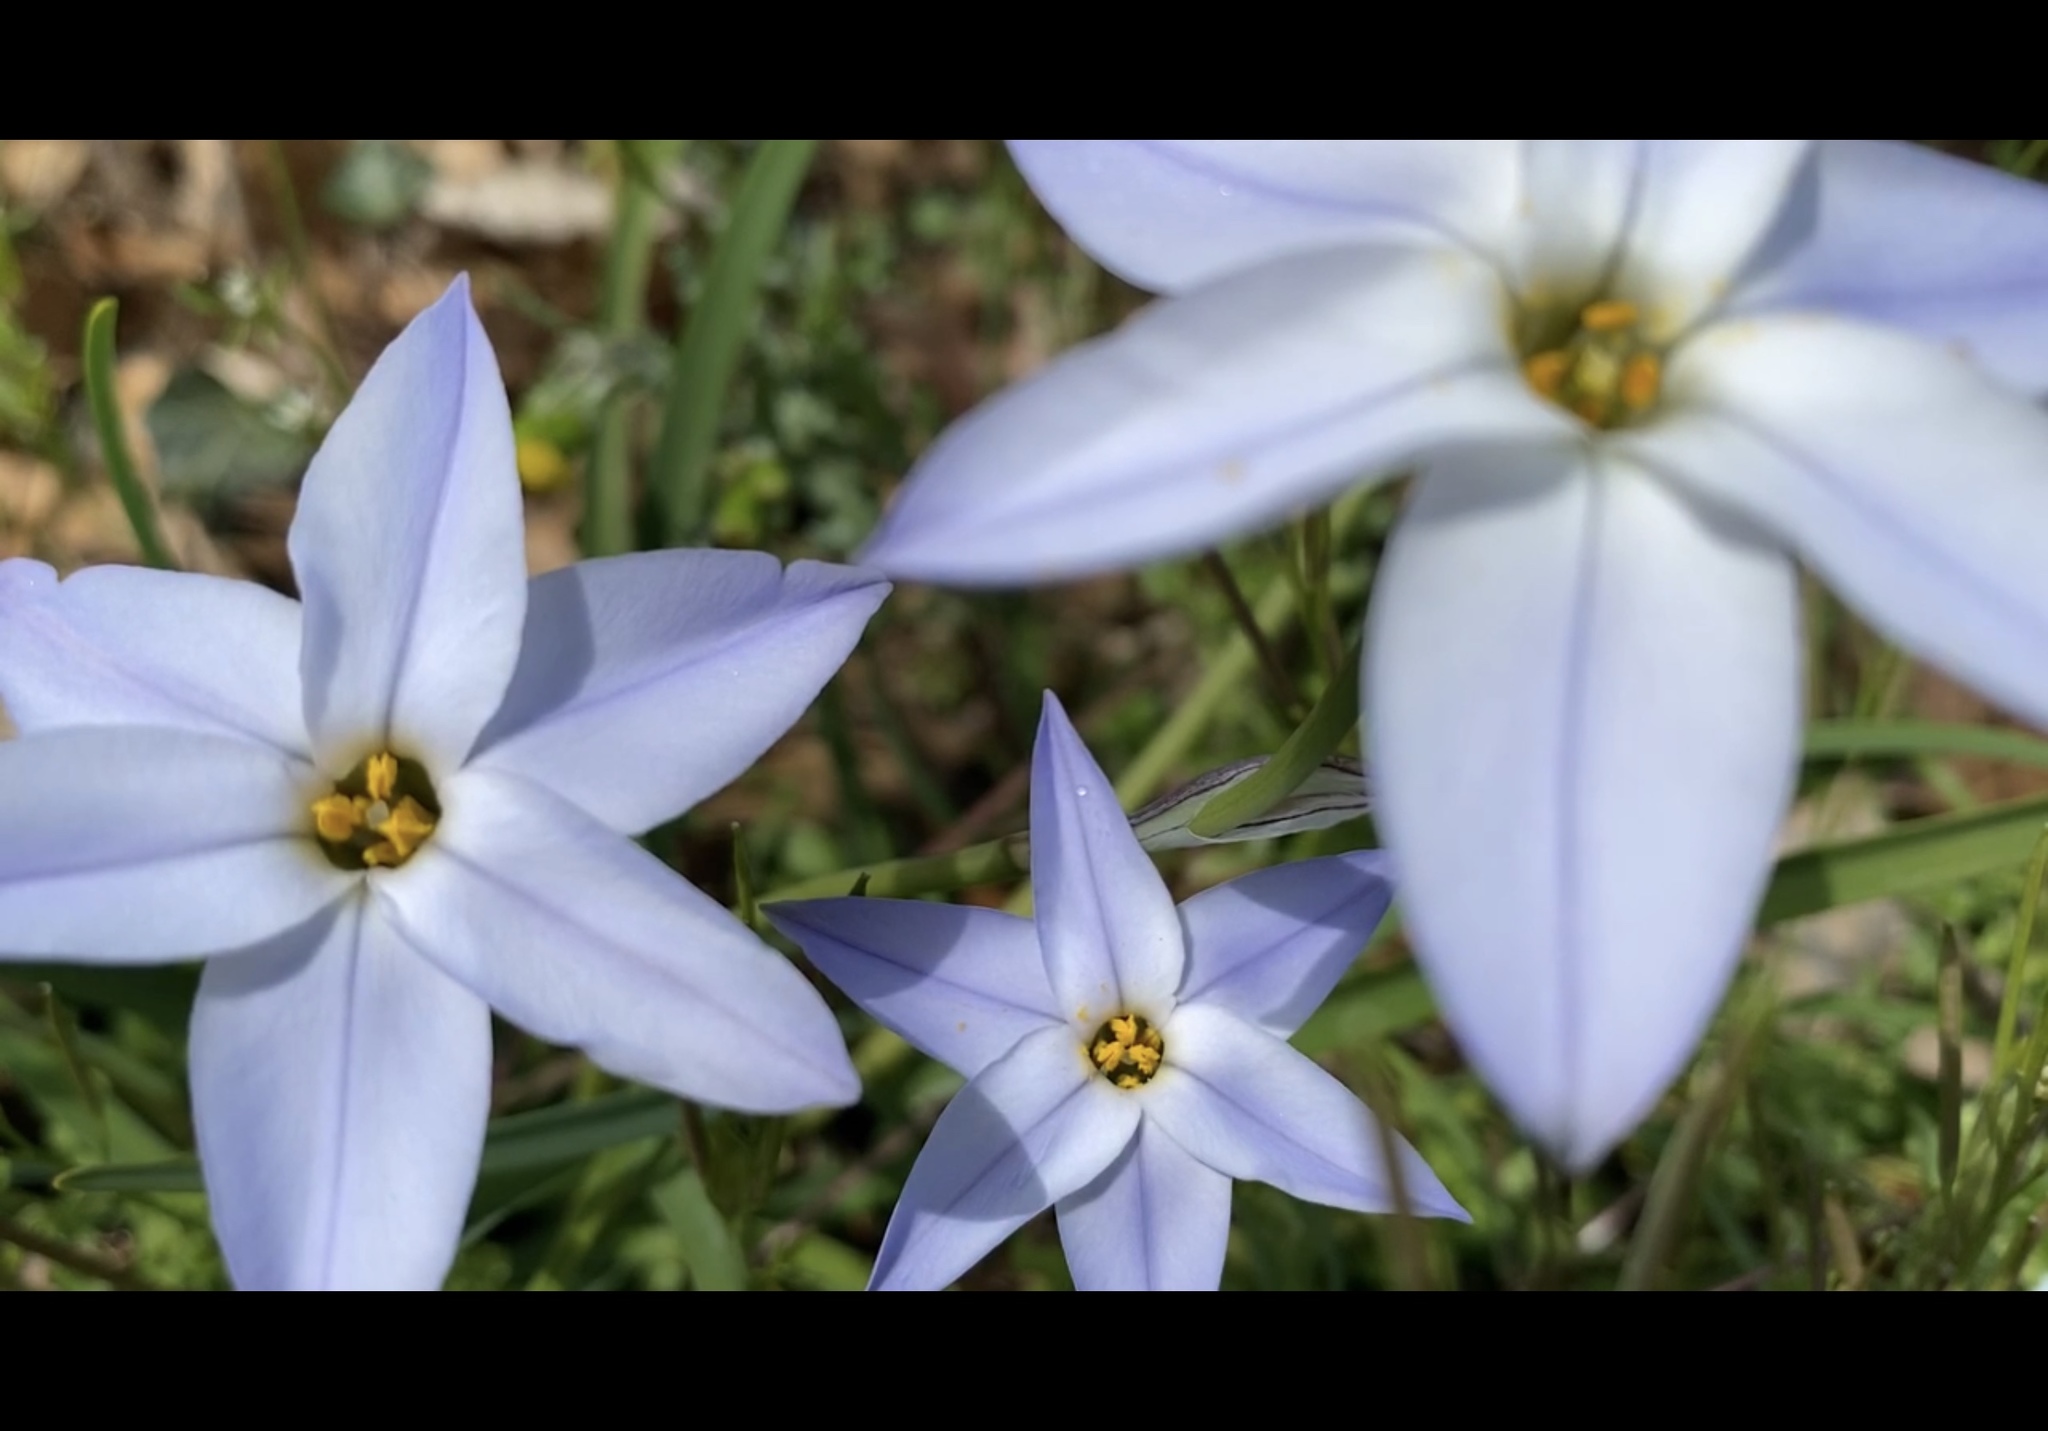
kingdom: Plantae
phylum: Tracheophyta
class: Liliopsida
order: Asparagales
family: Amaryllidaceae
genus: Ipheion
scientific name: Ipheion uniflorum
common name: Spring starflower
